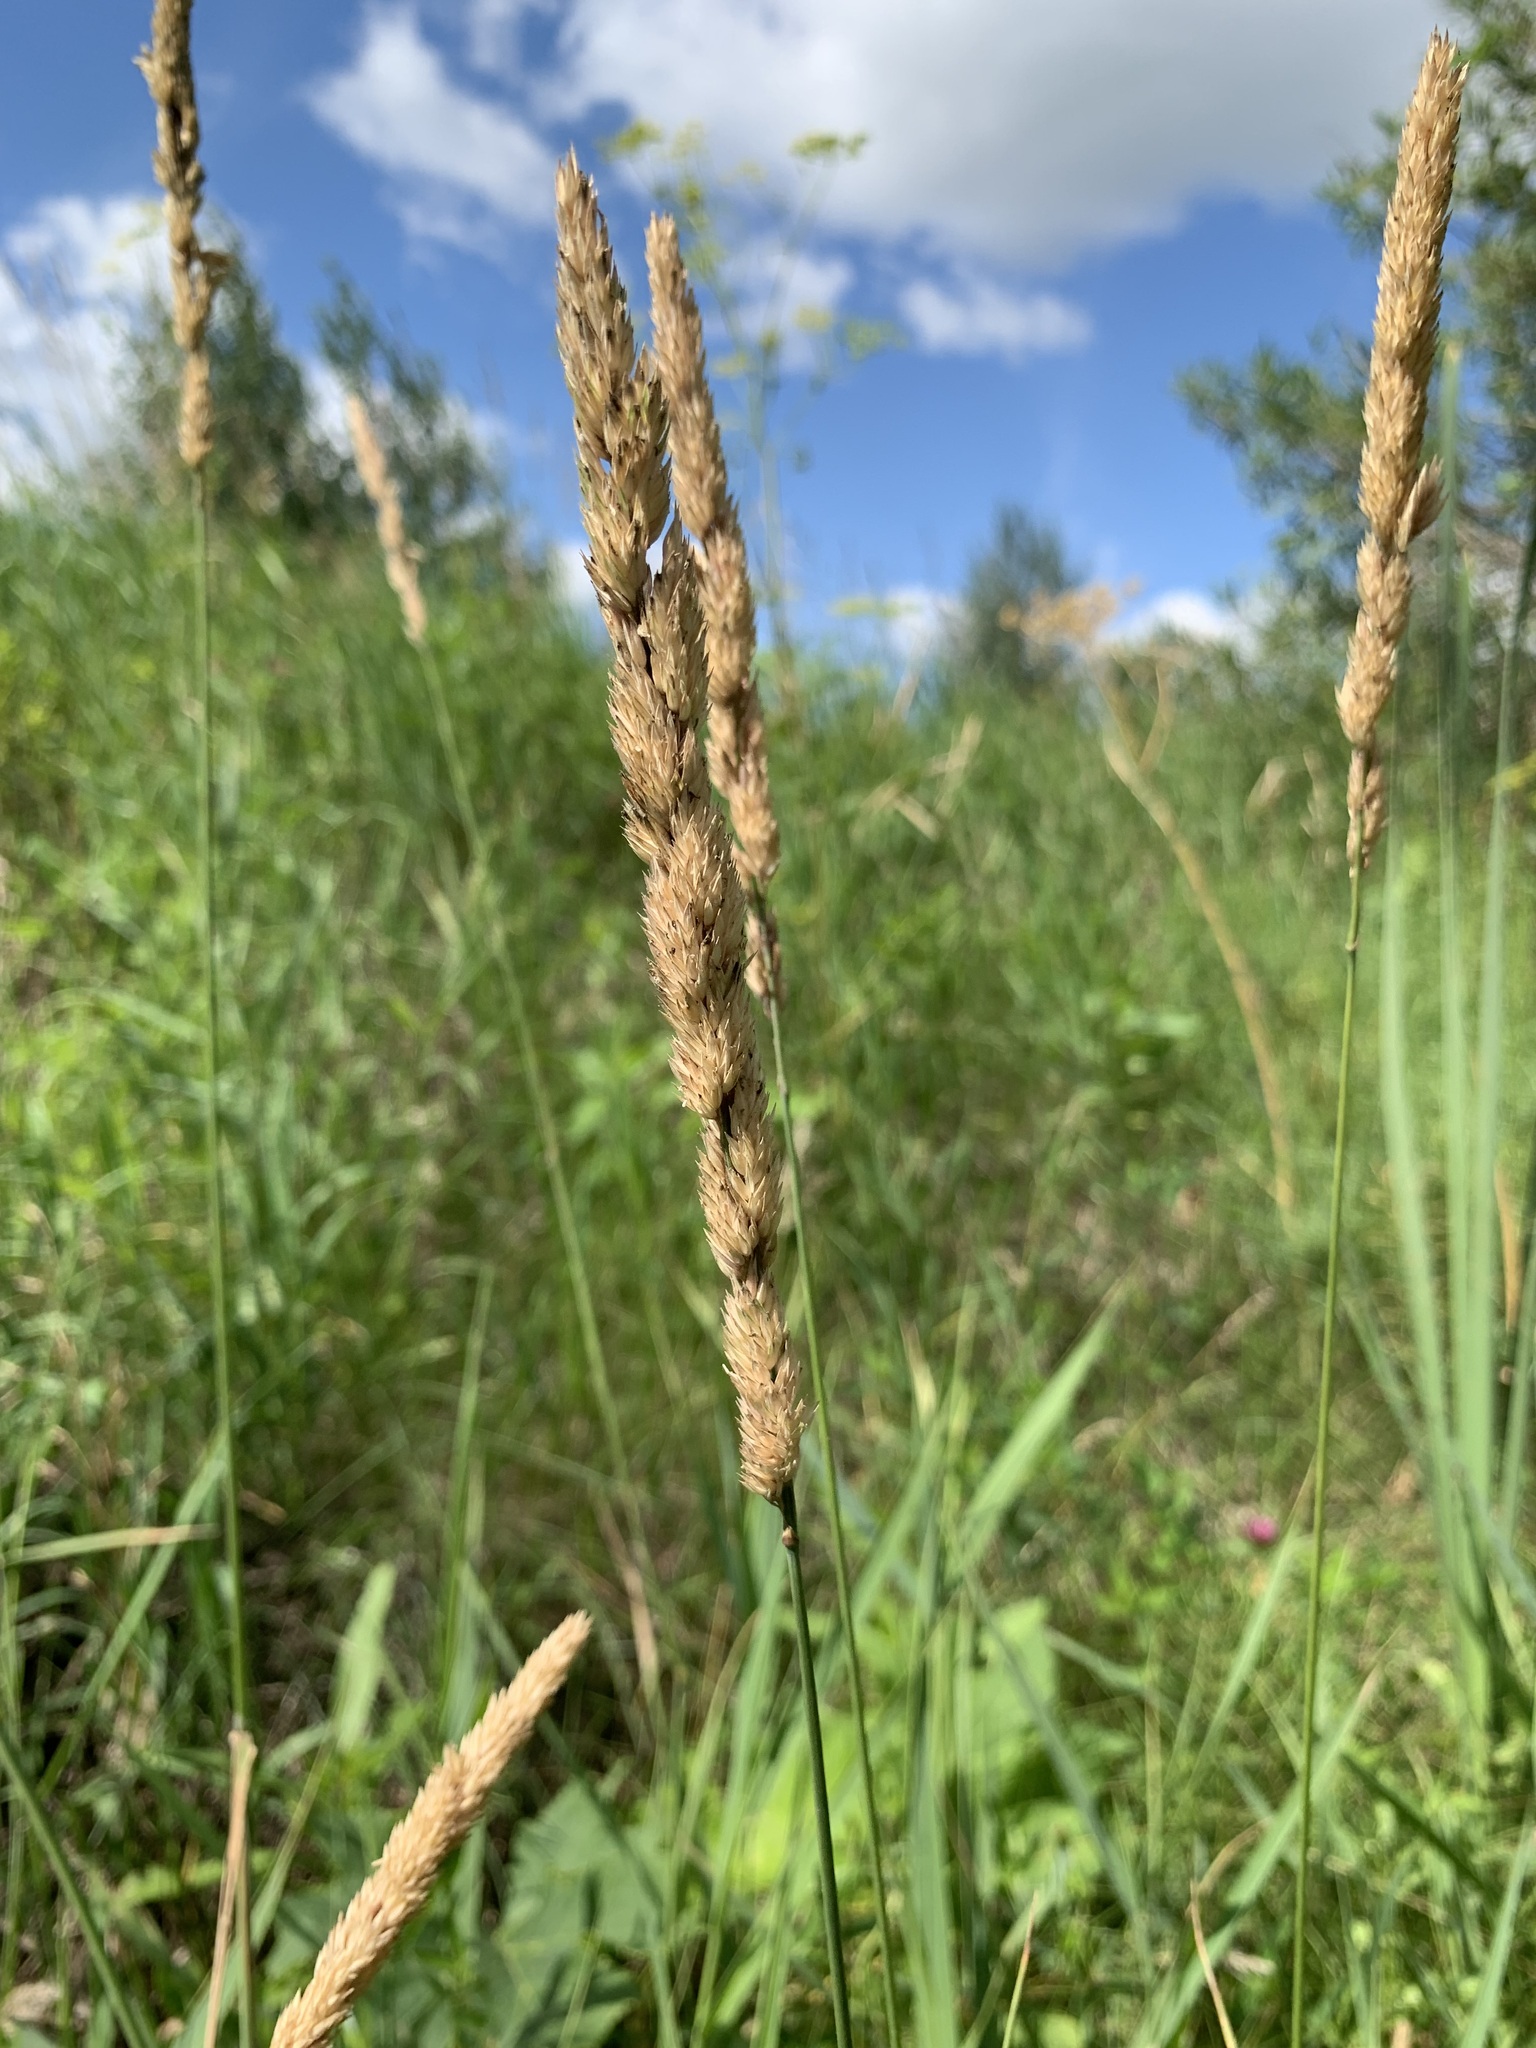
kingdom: Plantae
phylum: Tracheophyta
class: Liliopsida
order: Poales
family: Poaceae
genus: Phalaris
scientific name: Phalaris arundinacea
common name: Reed canary-grass
